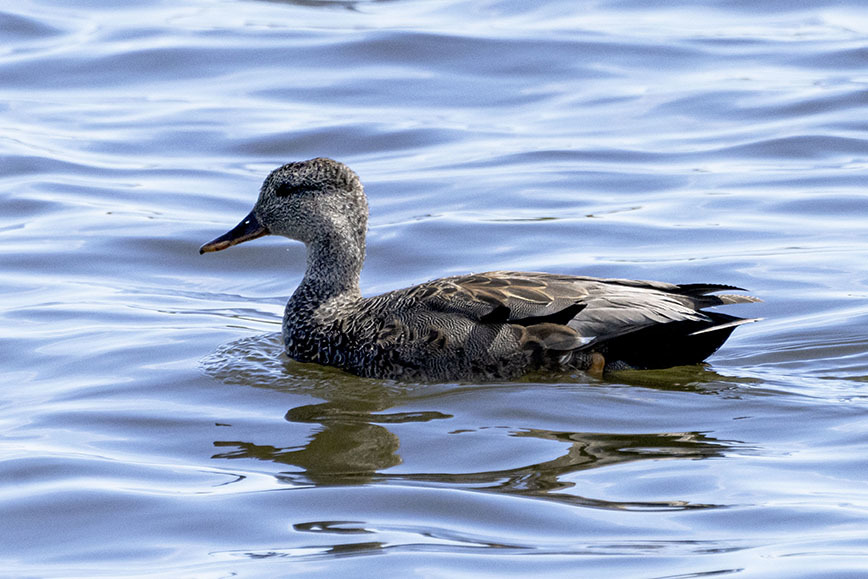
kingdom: Animalia
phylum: Chordata
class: Aves
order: Anseriformes
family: Anatidae
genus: Mareca
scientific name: Mareca strepera
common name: Gadwall
